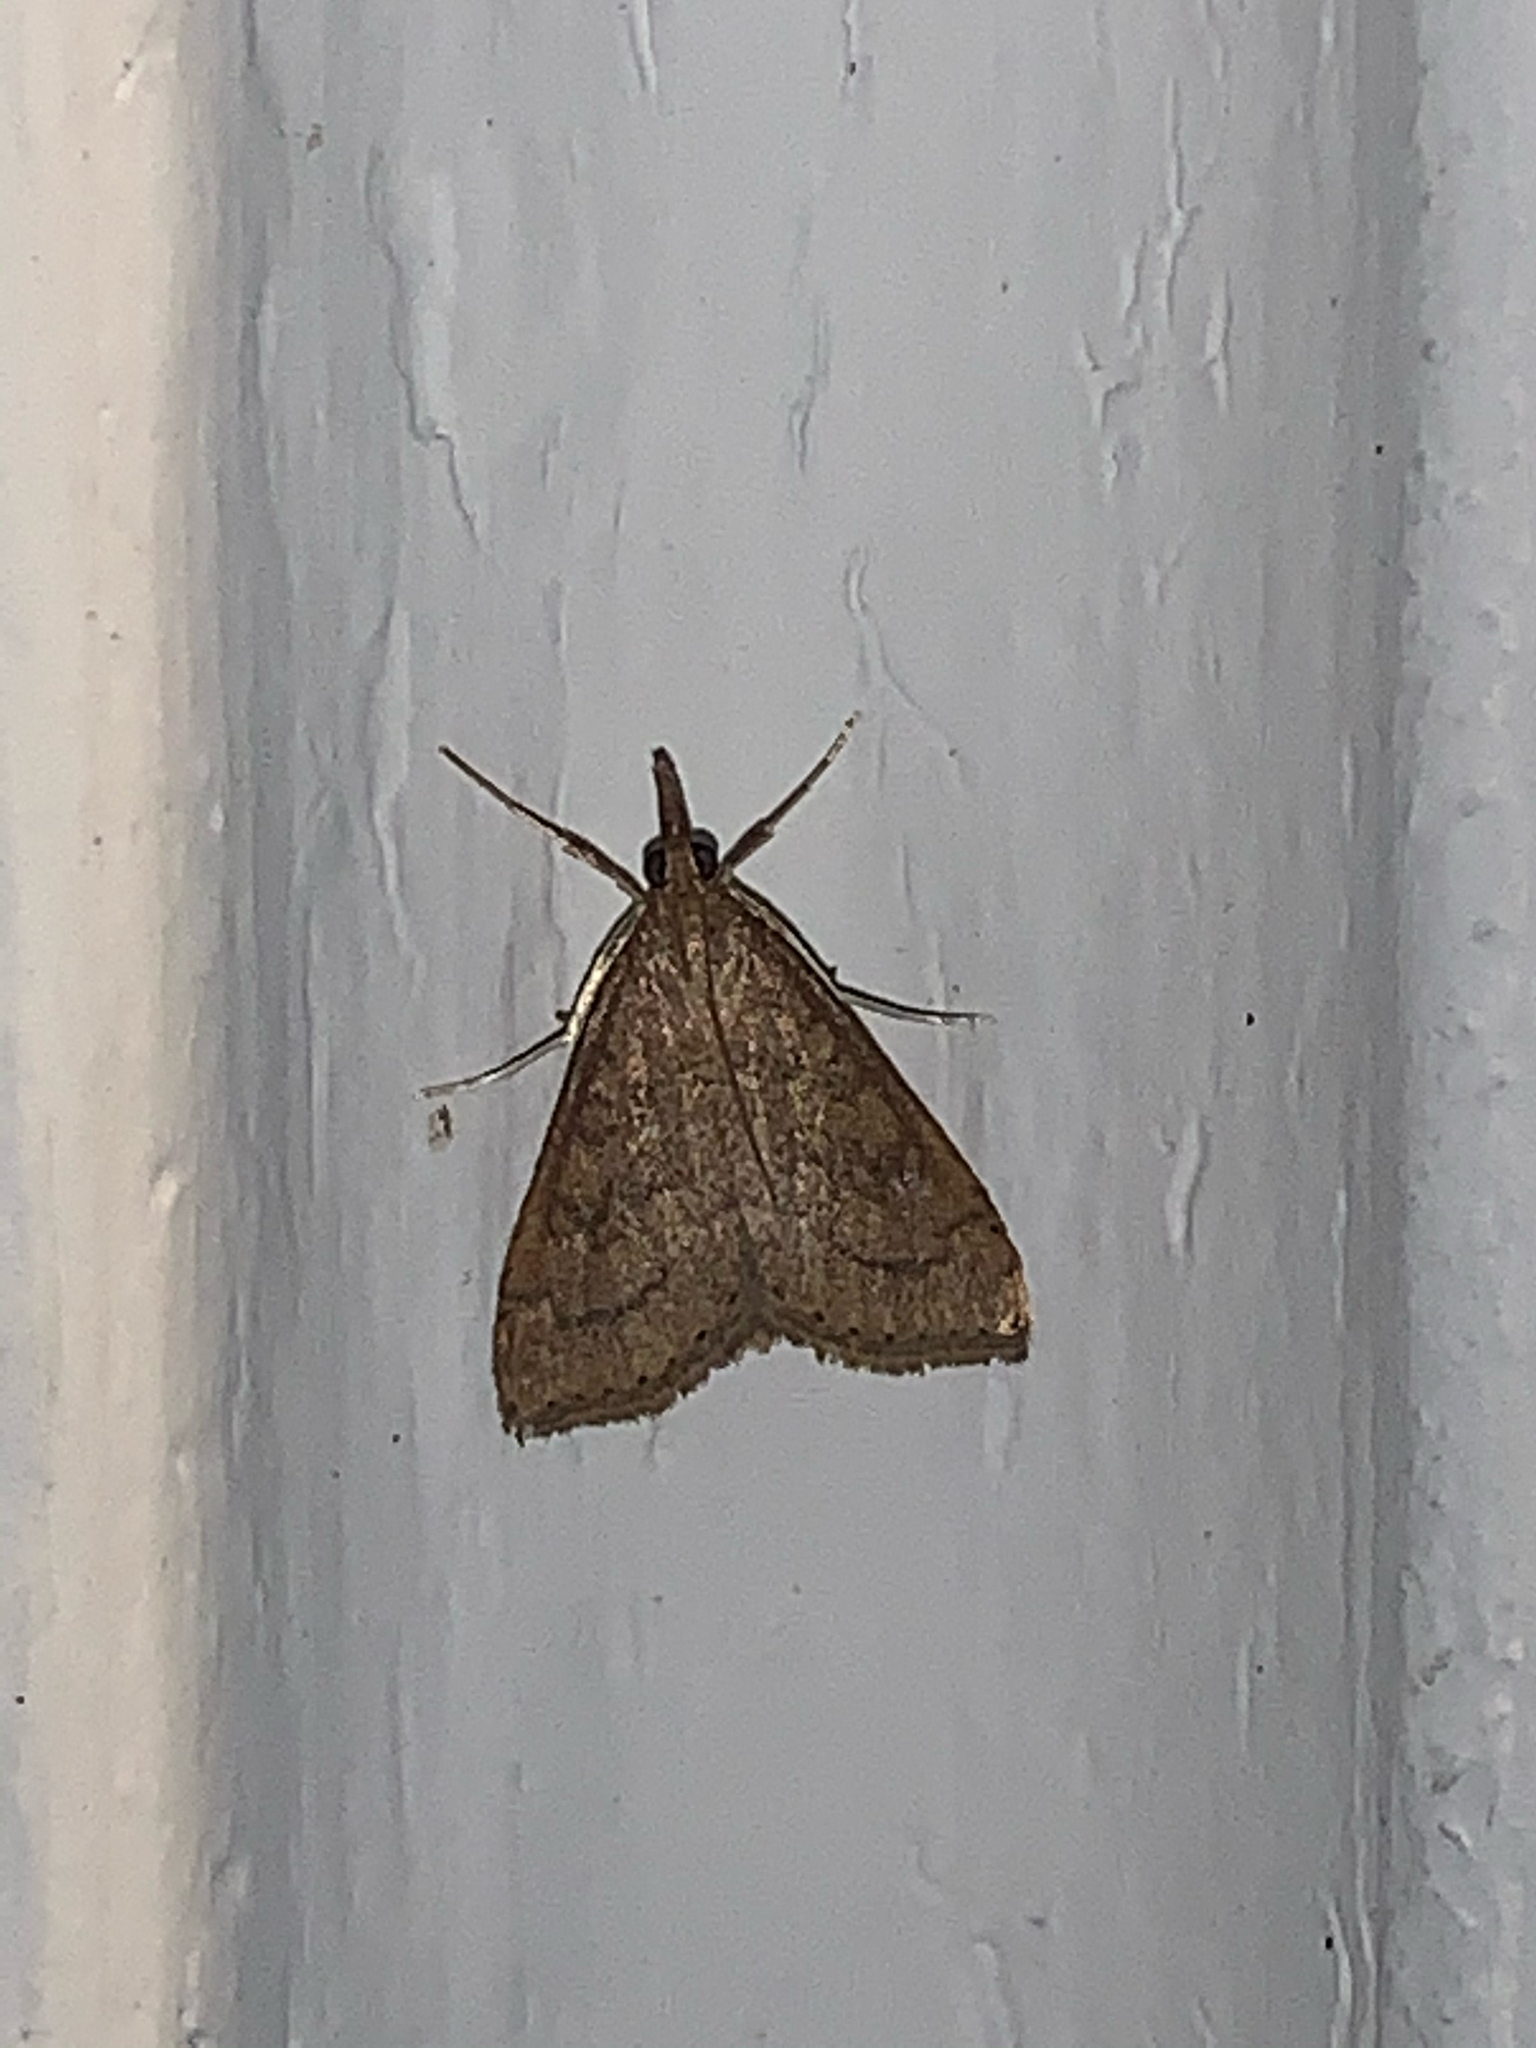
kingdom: Animalia
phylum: Arthropoda
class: Insecta
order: Lepidoptera
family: Crambidae
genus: Udea
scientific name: Udea rubigalis
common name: Celery leaftier moth
